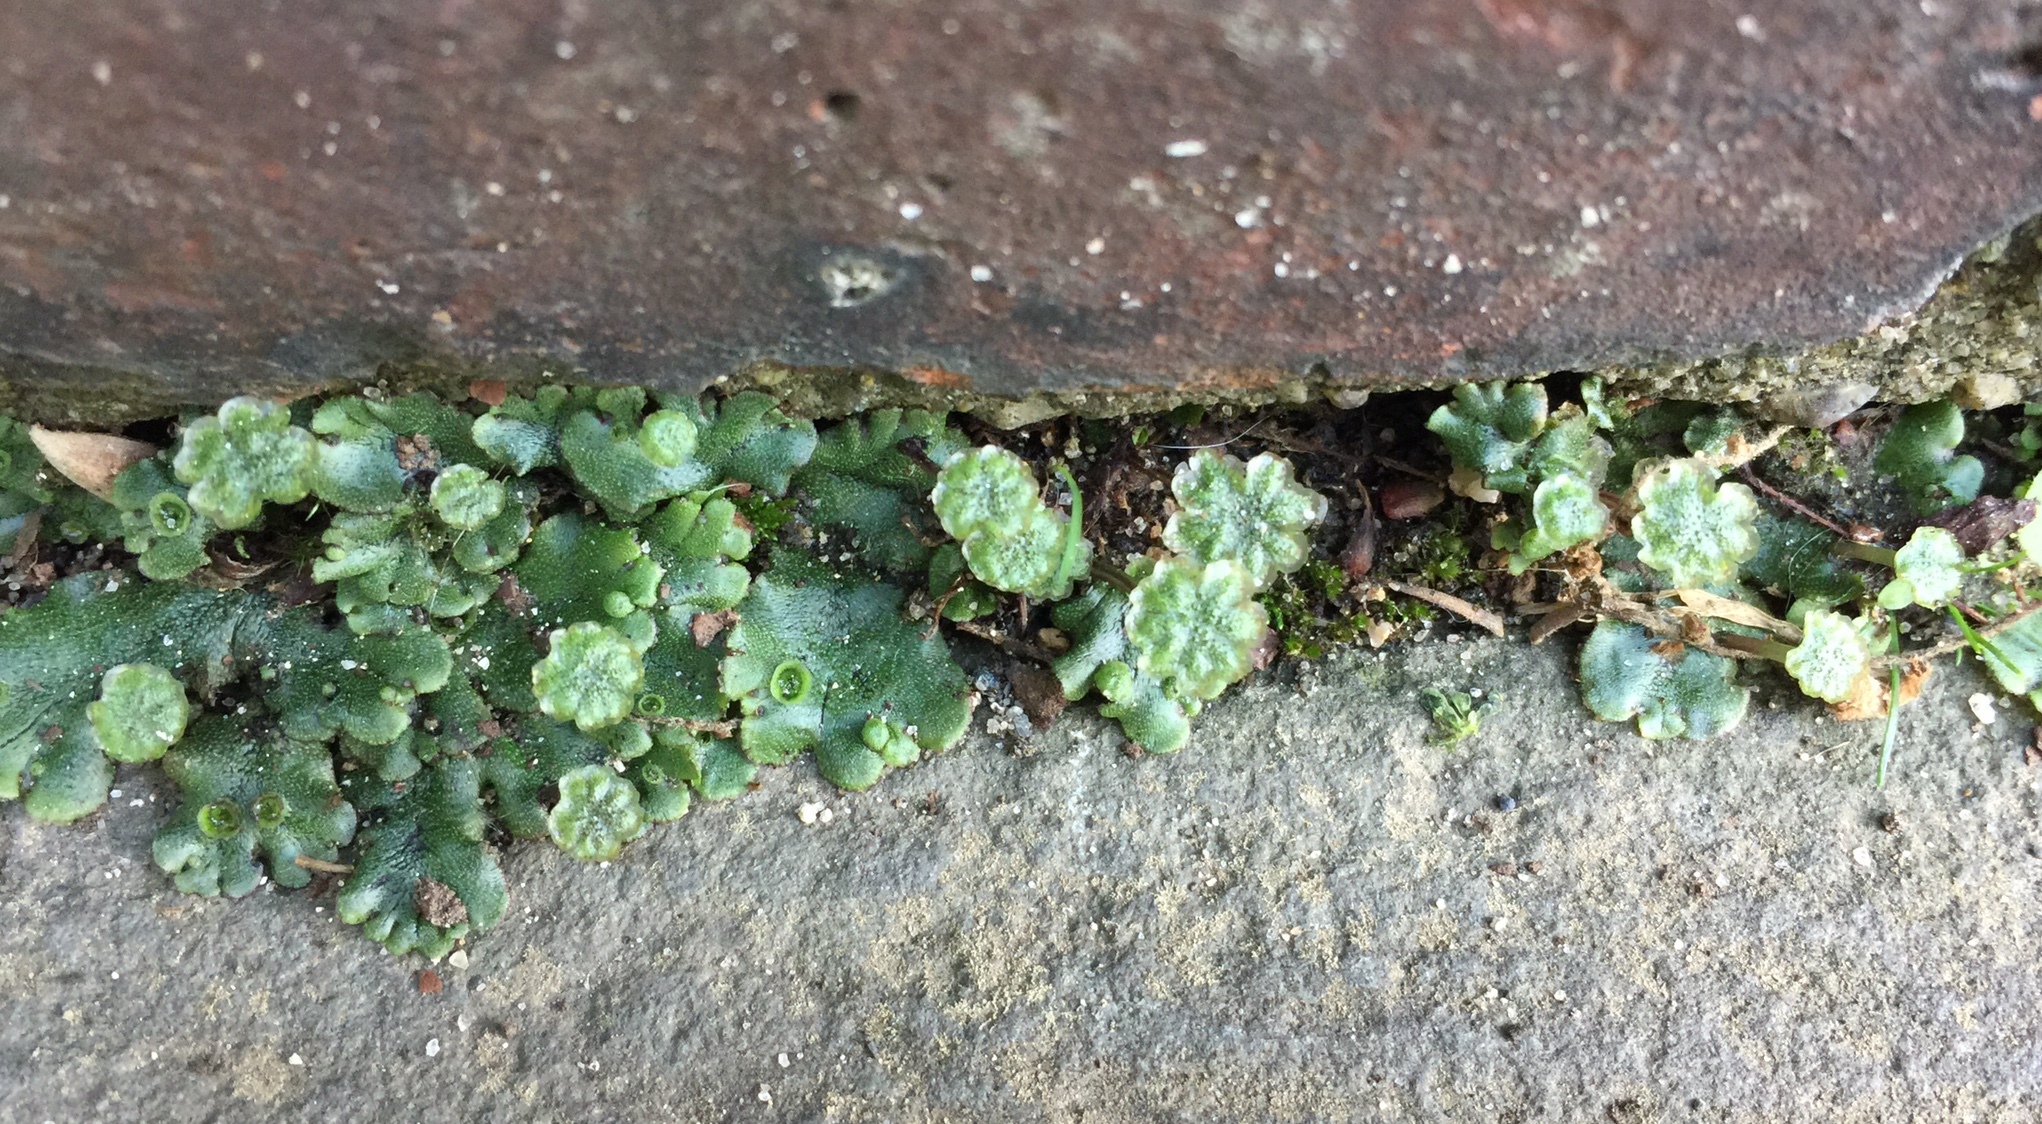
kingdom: Plantae
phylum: Marchantiophyta
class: Marchantiopsida
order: Marchantiales
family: Marchantiaceae
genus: Marchantia
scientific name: Marchantia polymorpha
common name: Common liverwort
